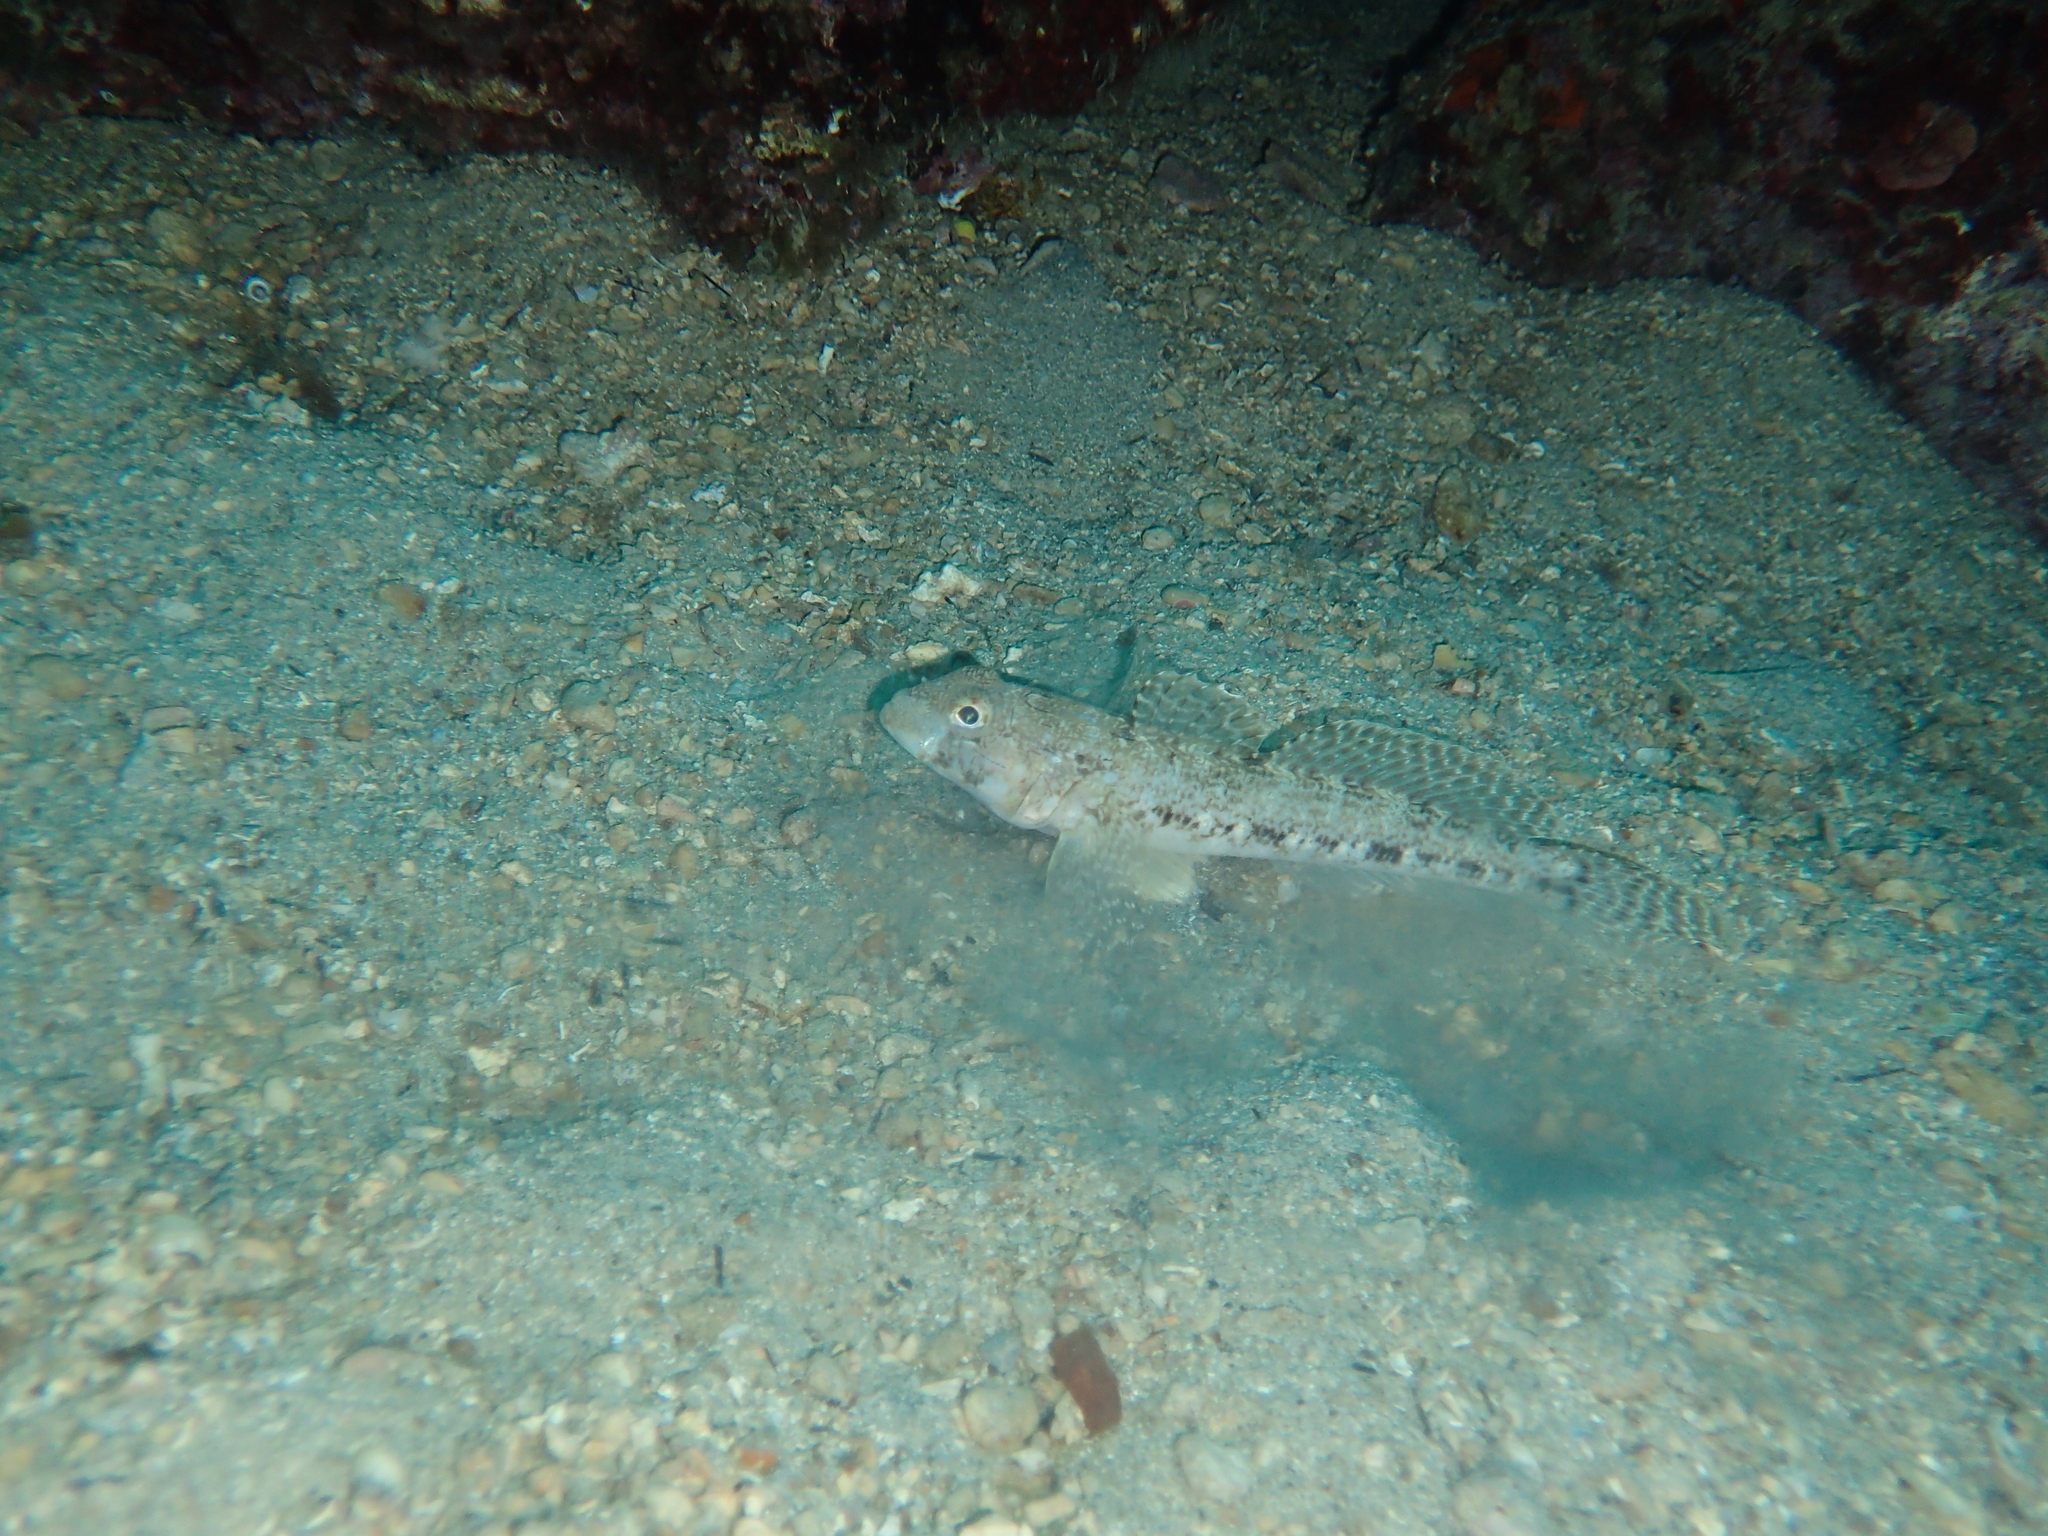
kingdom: Animalia
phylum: Chordata
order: Perciformes
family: Gobiidae
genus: Gobius
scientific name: Gobius geniporus
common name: Slender goby
